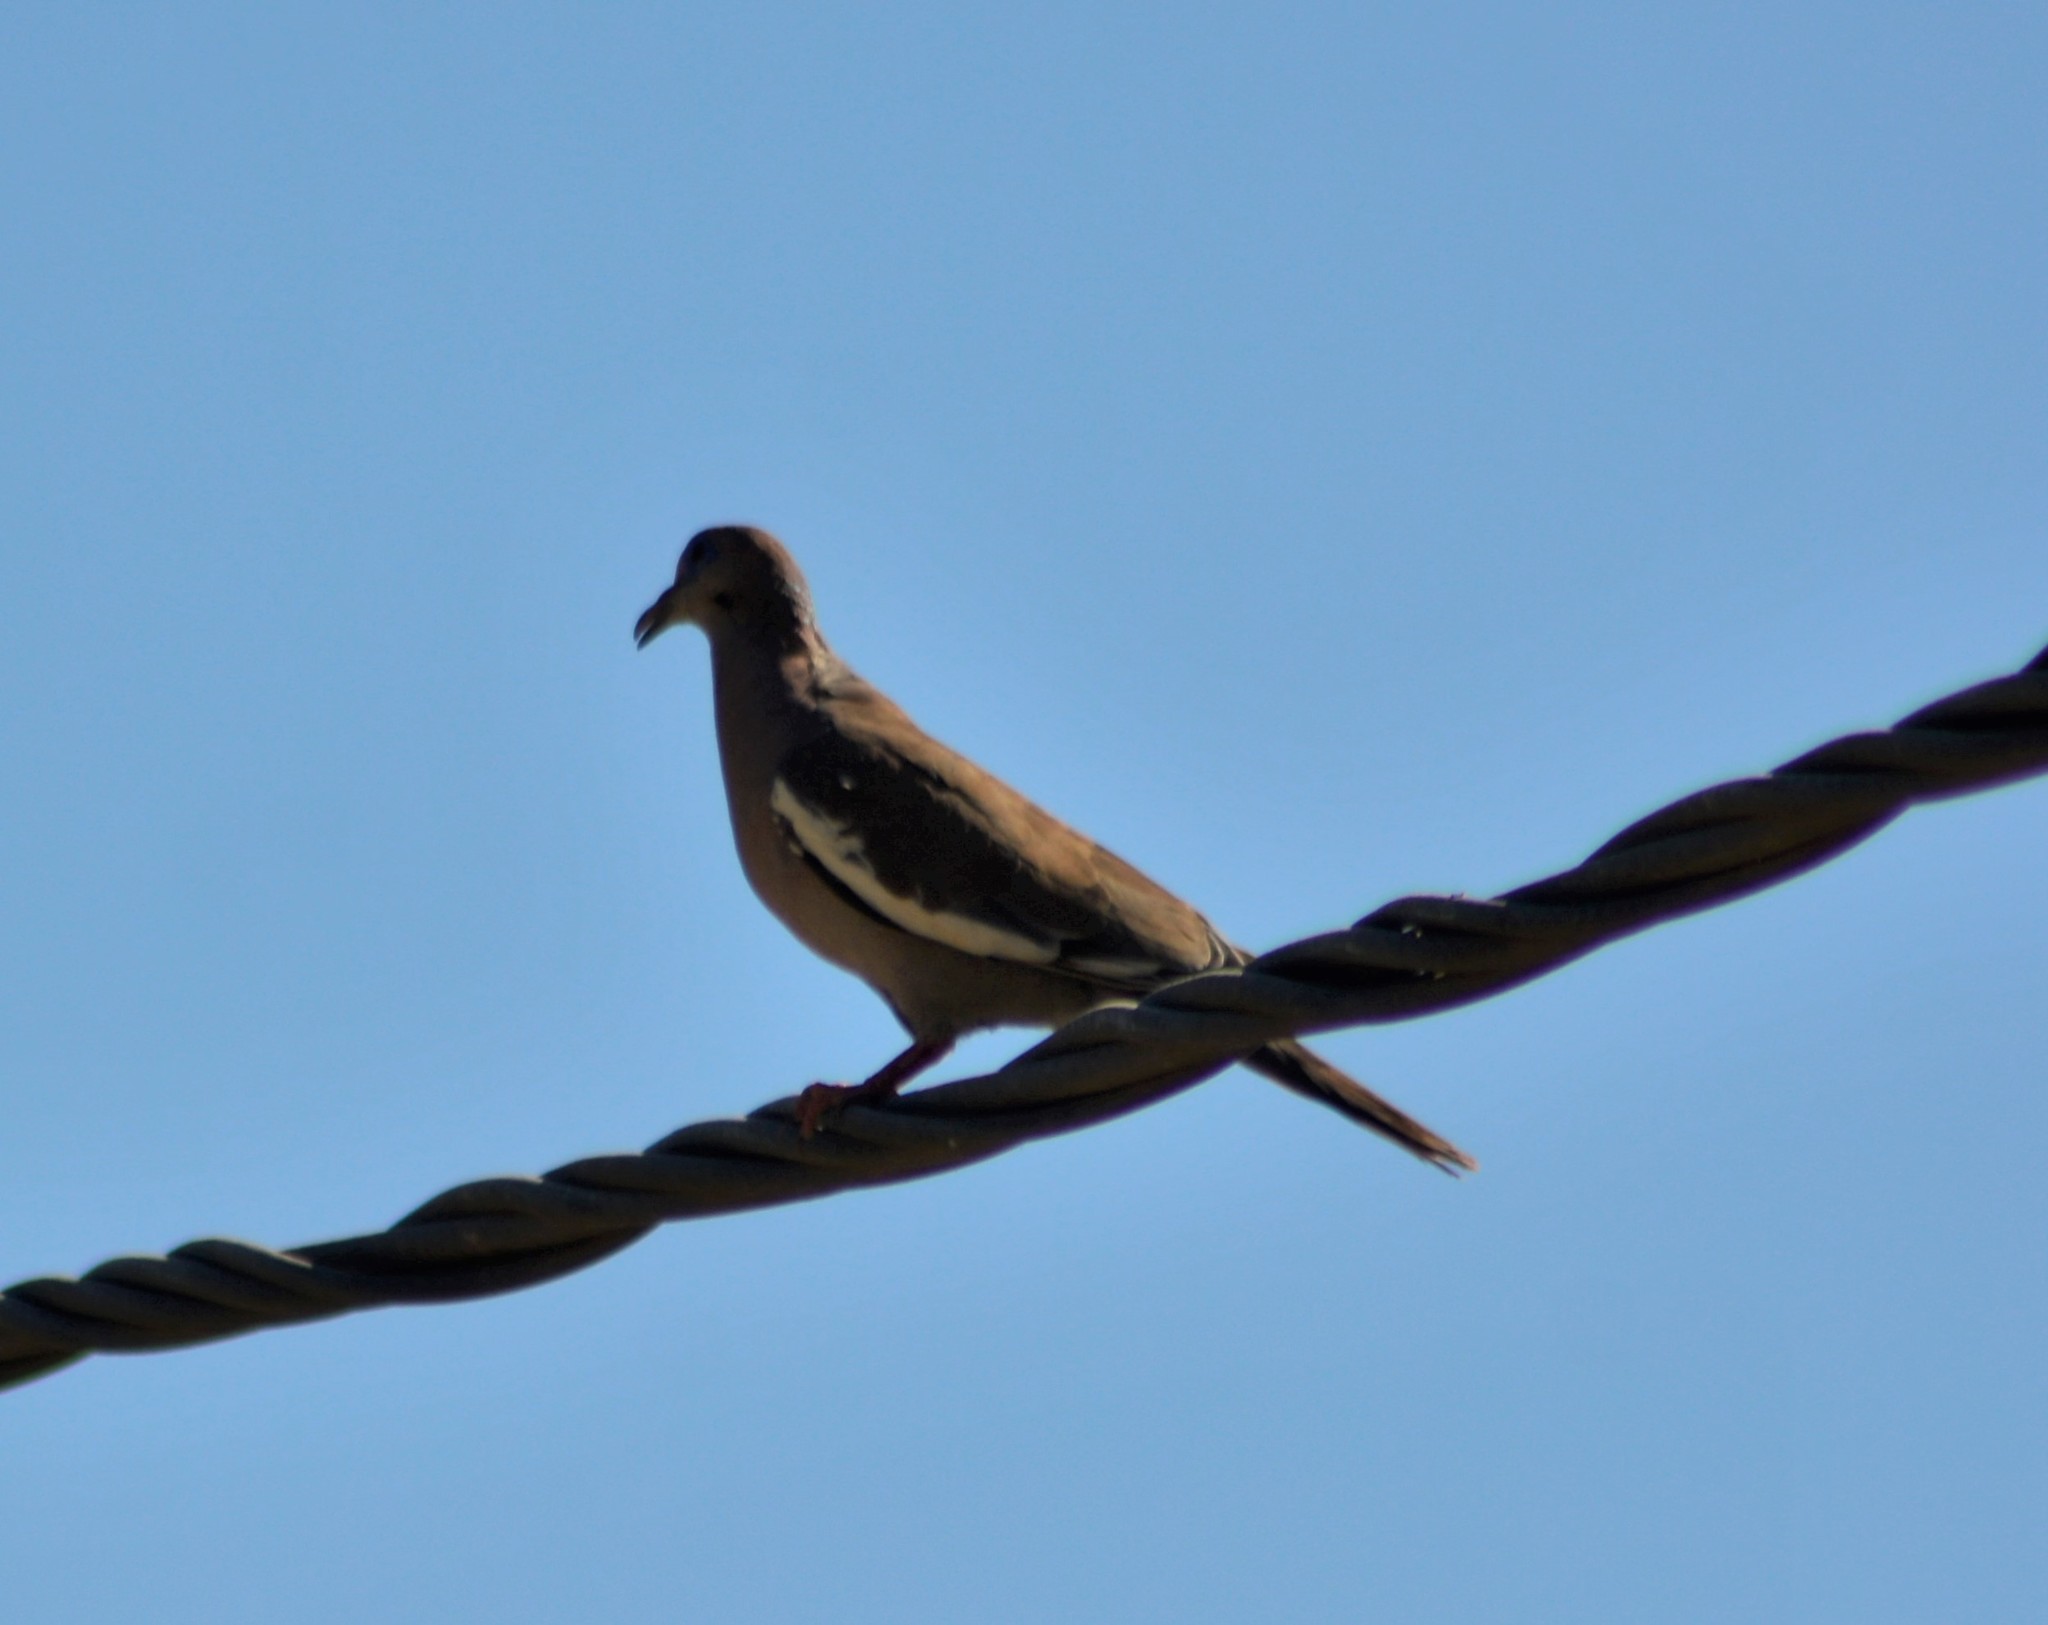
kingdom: Animalia
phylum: Chordata
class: Aves
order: Columbiformes
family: Columbidae
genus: Zenaida
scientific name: Zenaida meloda
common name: West peruvian dove
